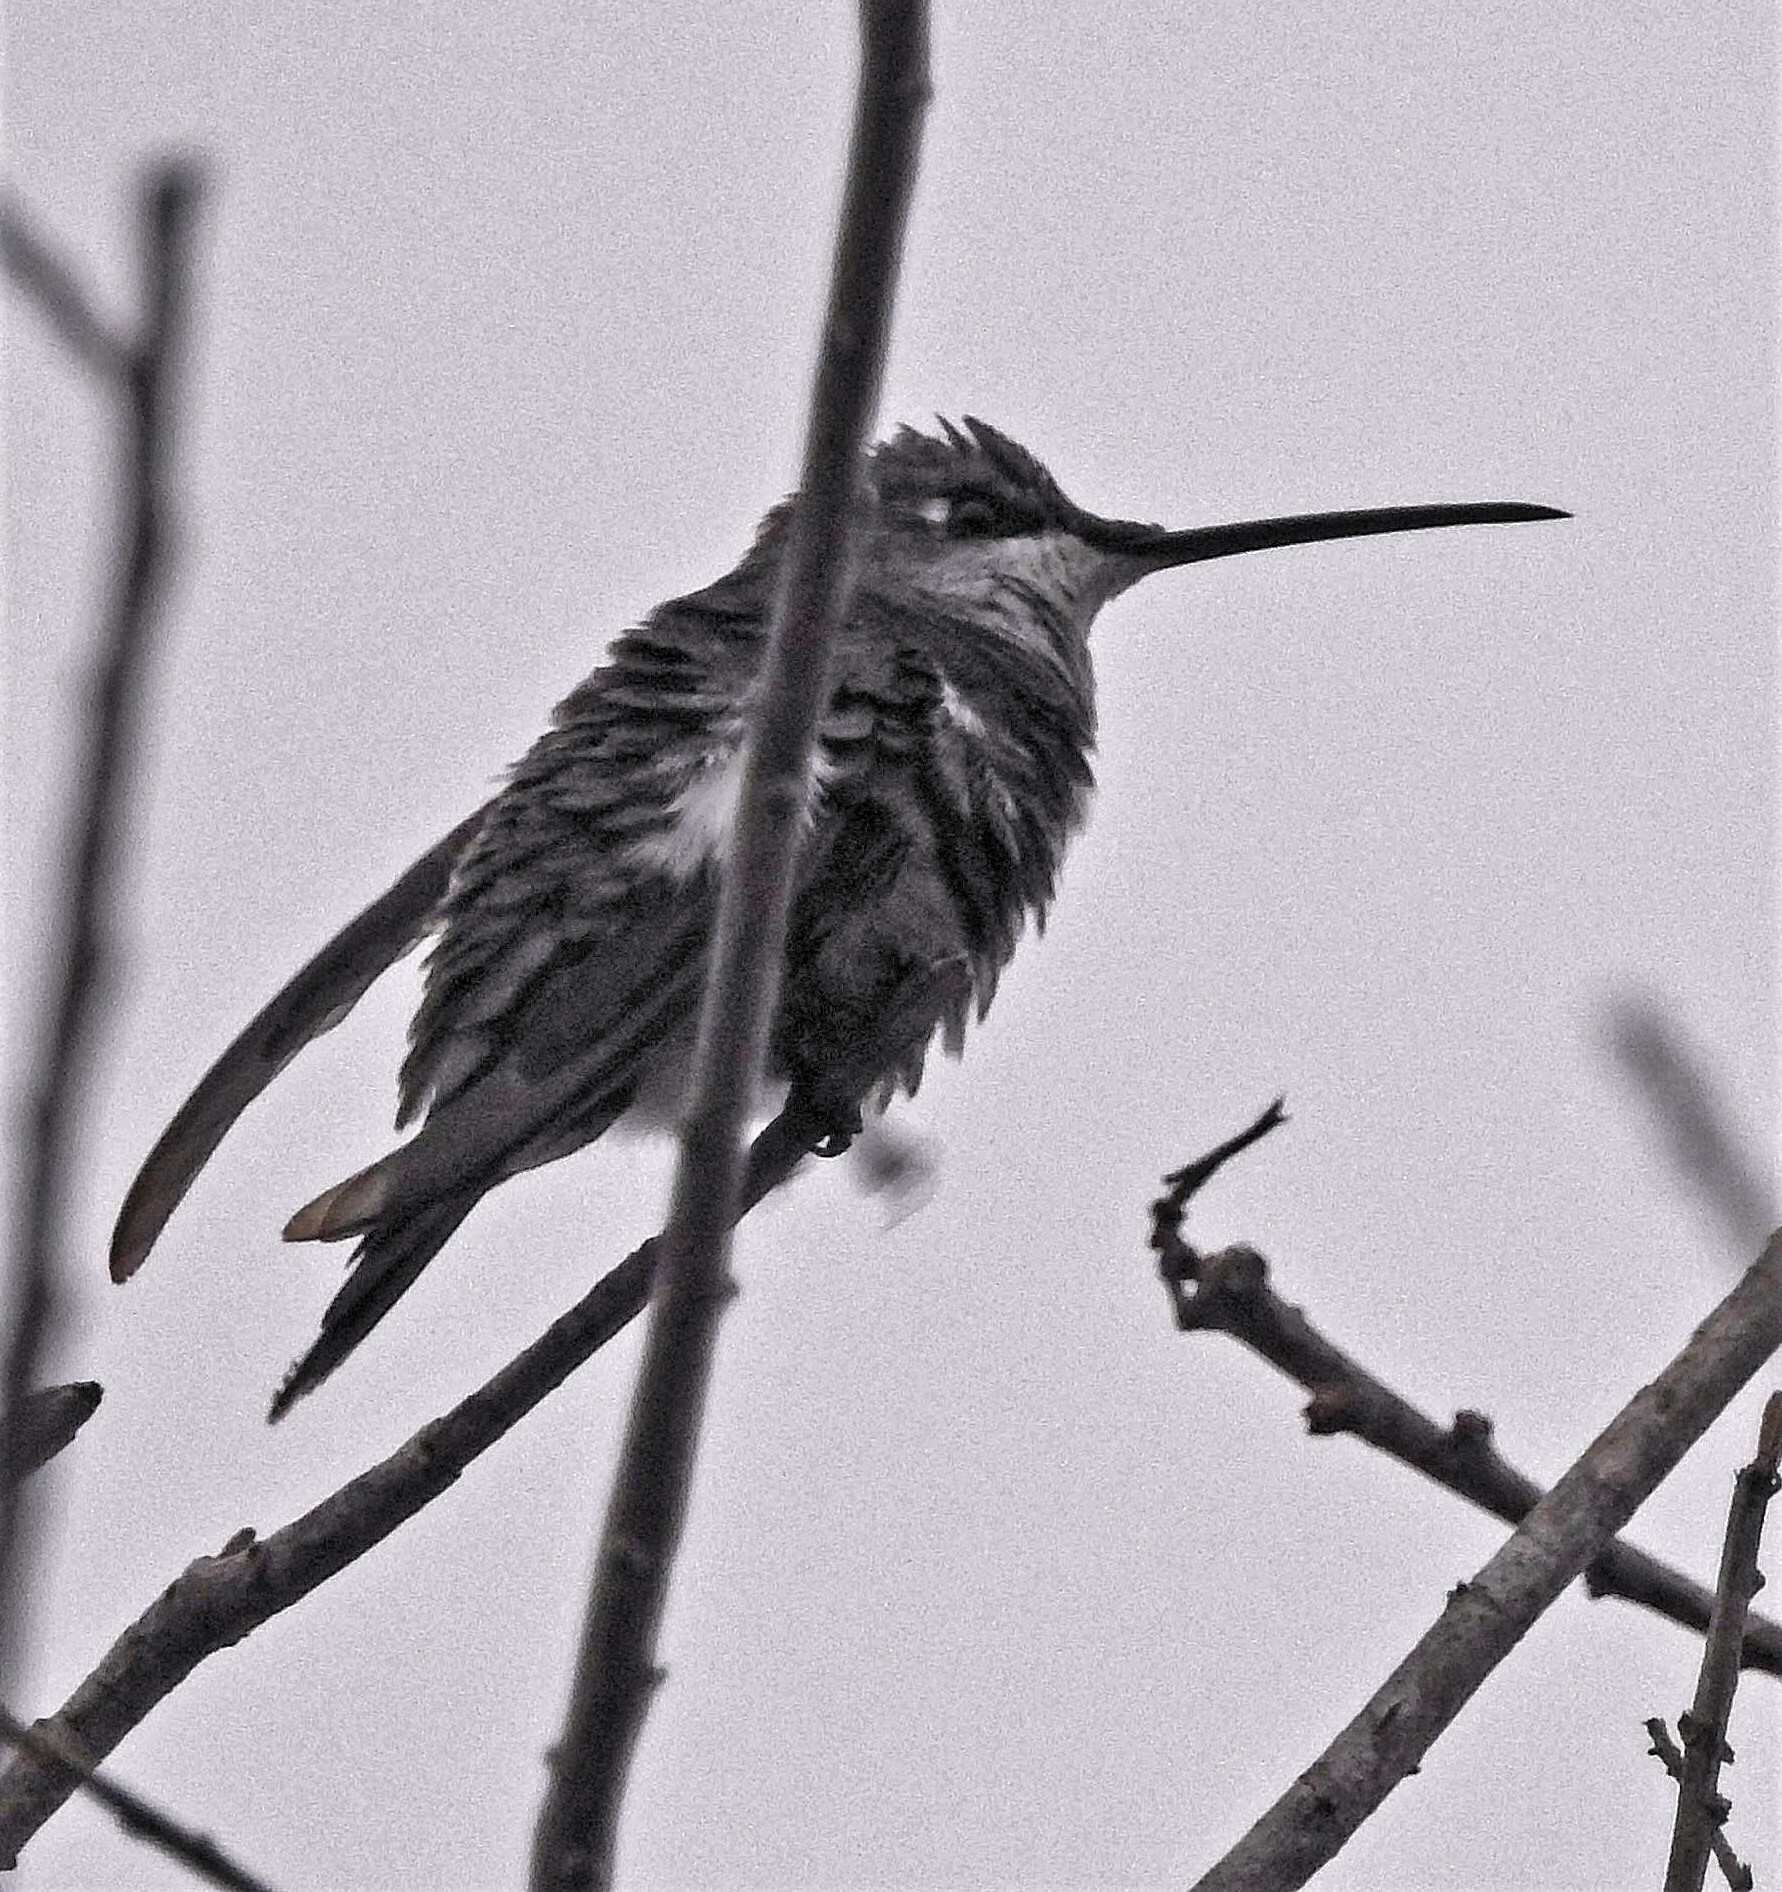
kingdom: Animalia
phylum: Chordata
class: Aves
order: Apodiformes
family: Trochilidae
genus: Heliomaster
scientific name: Heliomaster furcifer
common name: Blue-tufted starthroat
